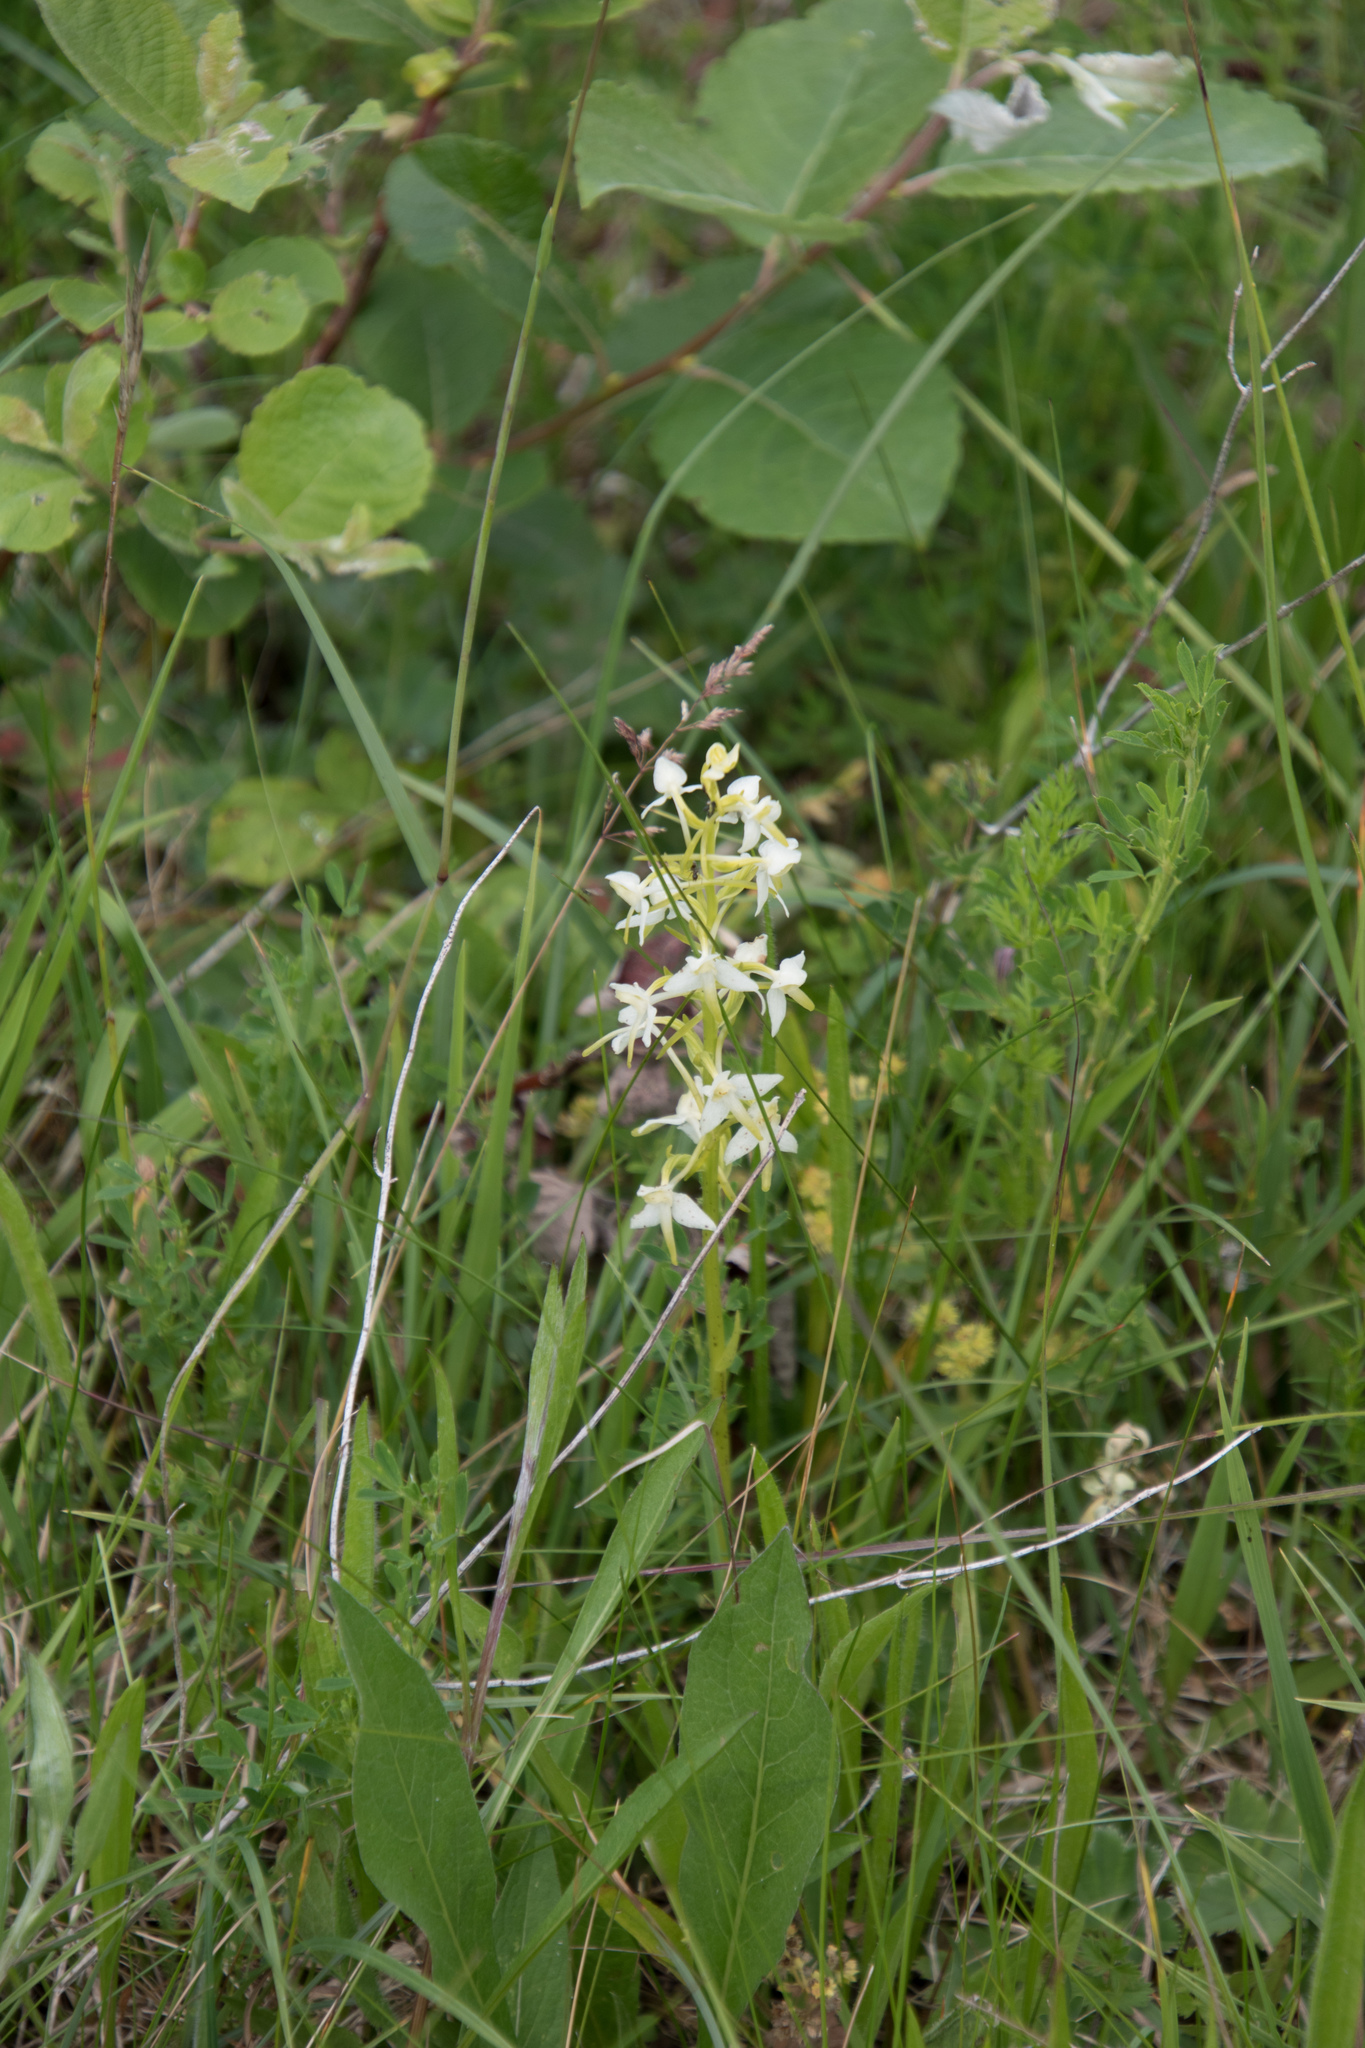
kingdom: Plantae
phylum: Tracheophyta
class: Liliopsida
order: Asparagales
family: Orchidaceae
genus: Platanthera
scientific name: Platanthera bifolia
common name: Lesser butterfly-orchid
